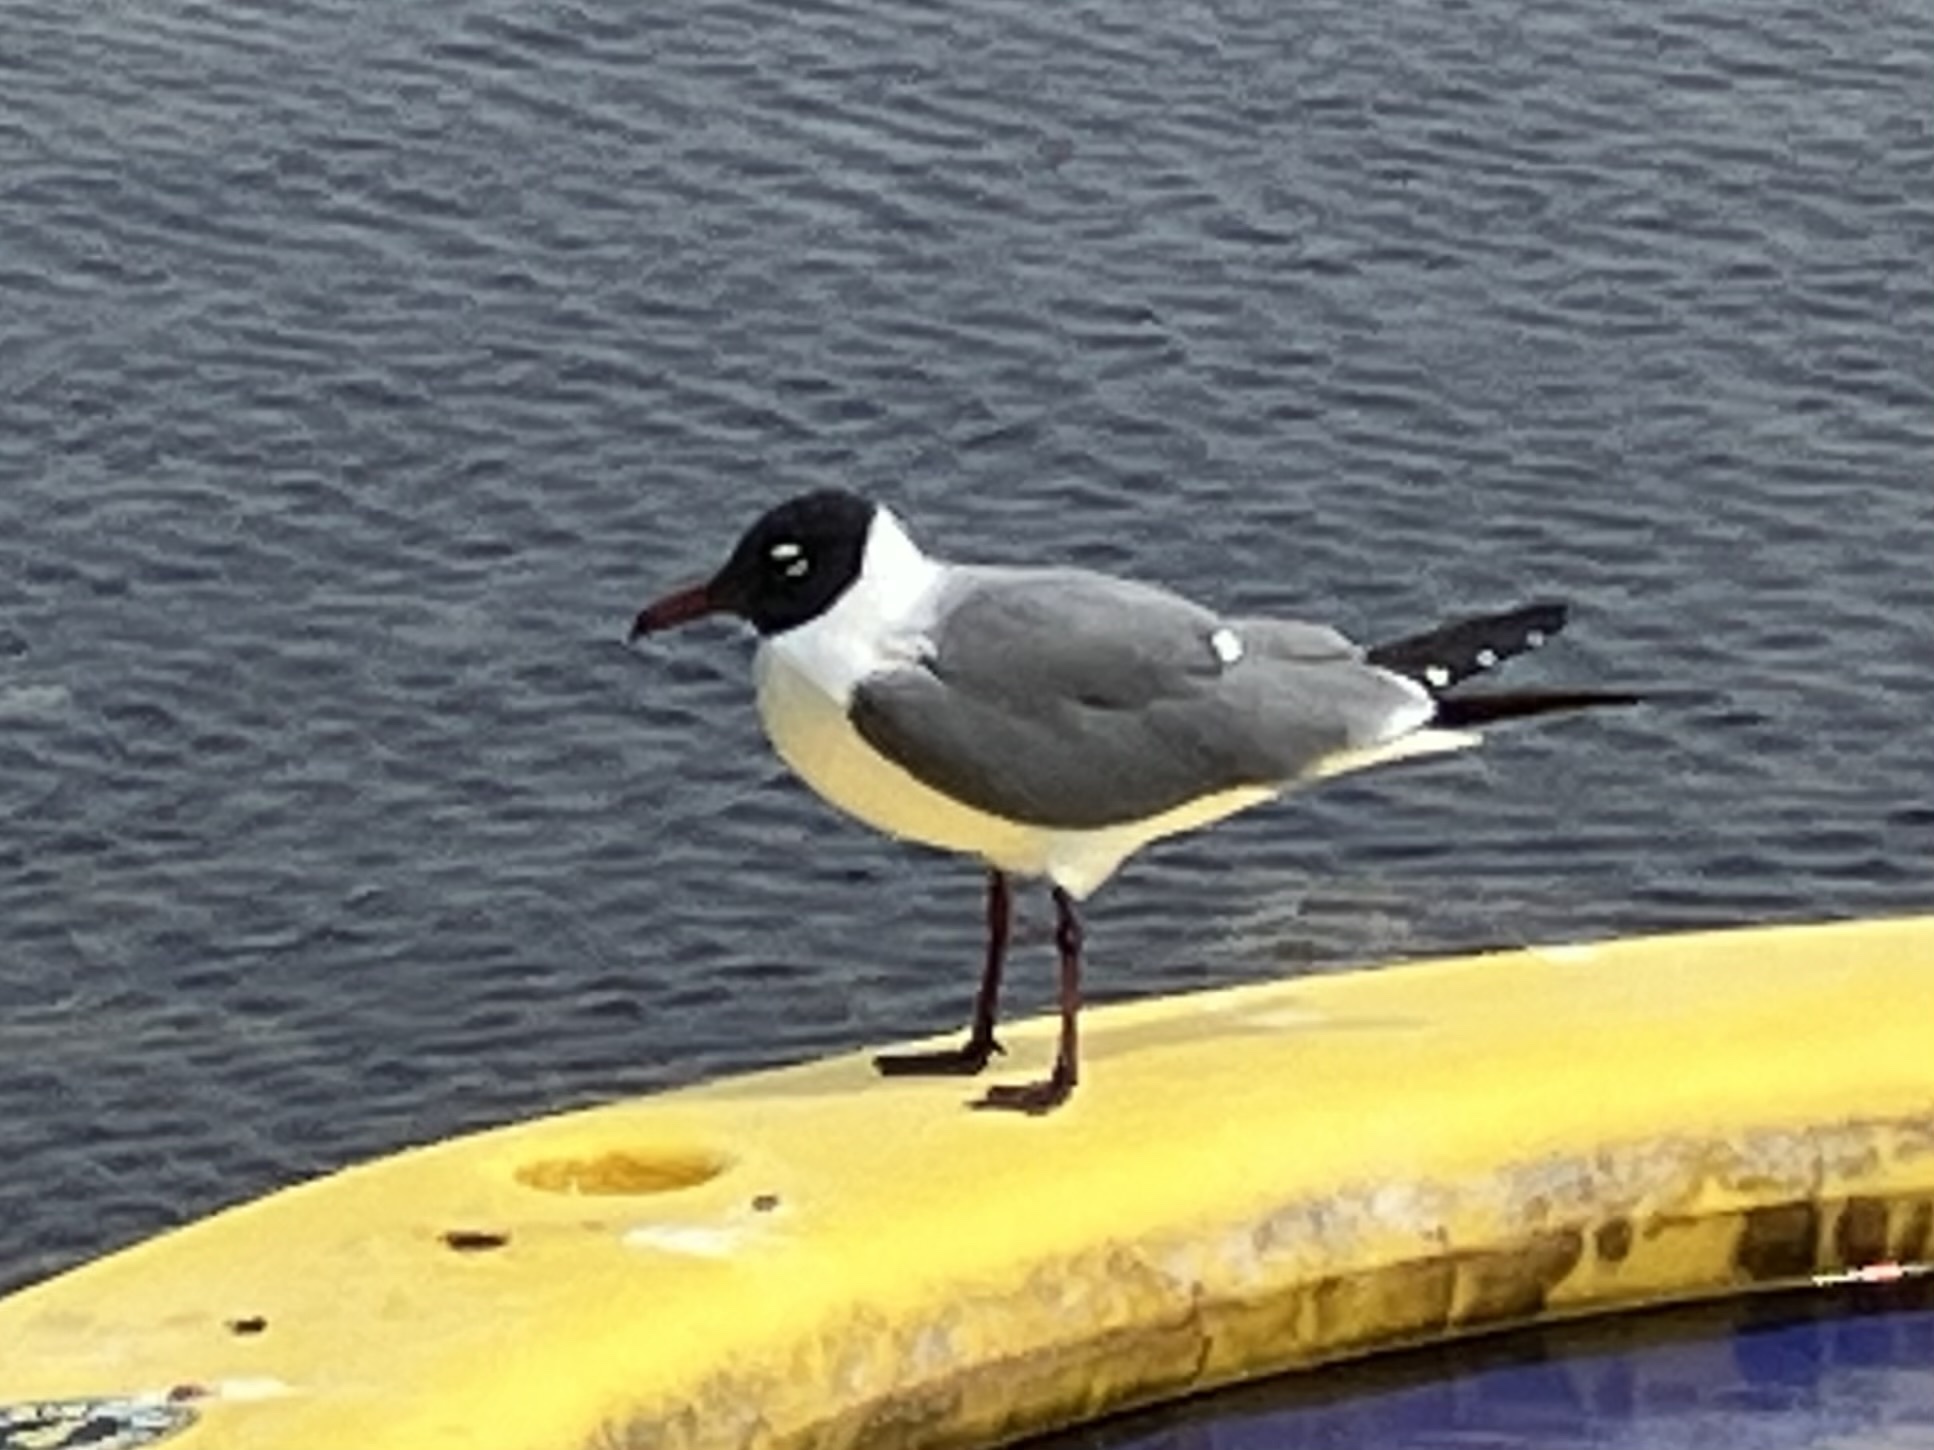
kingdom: Animalia
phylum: Chordata
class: Aves
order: Charadriiformes
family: Laridae
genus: Leucophaeus
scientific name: Leucophaeus atricilla
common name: Laughing gull
